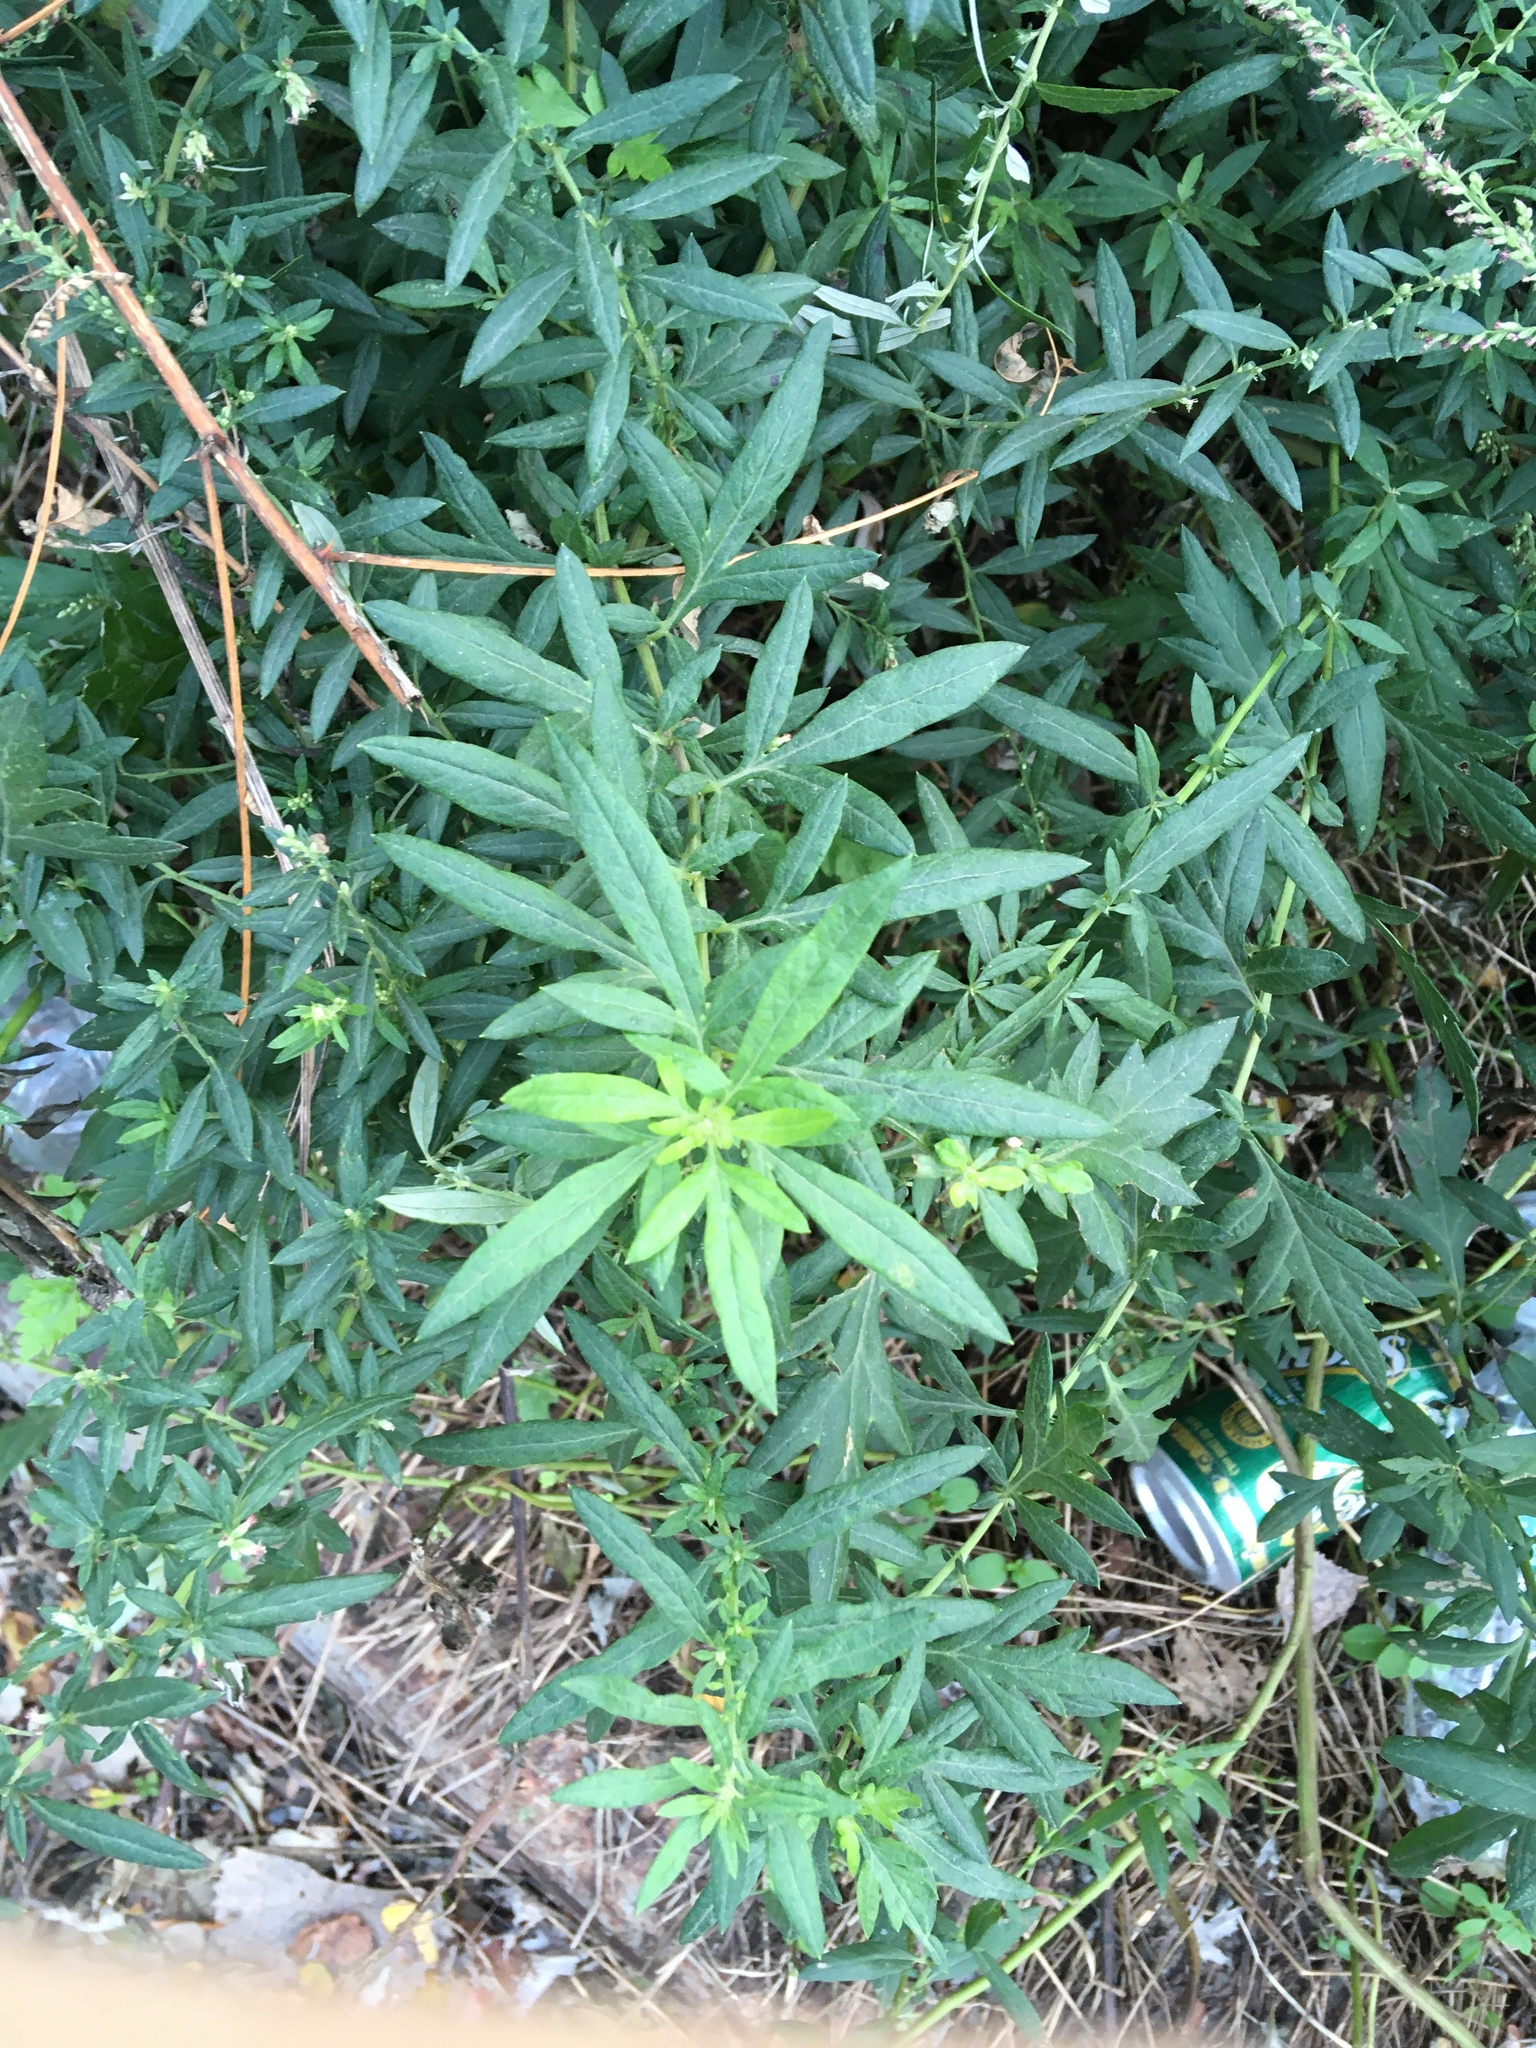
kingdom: Plantae
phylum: Tracheophyta
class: Magnoliopsida
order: Asterales
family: Asteraceae
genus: Artemisia
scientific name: Artemisia vulgaris
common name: Mugwort
